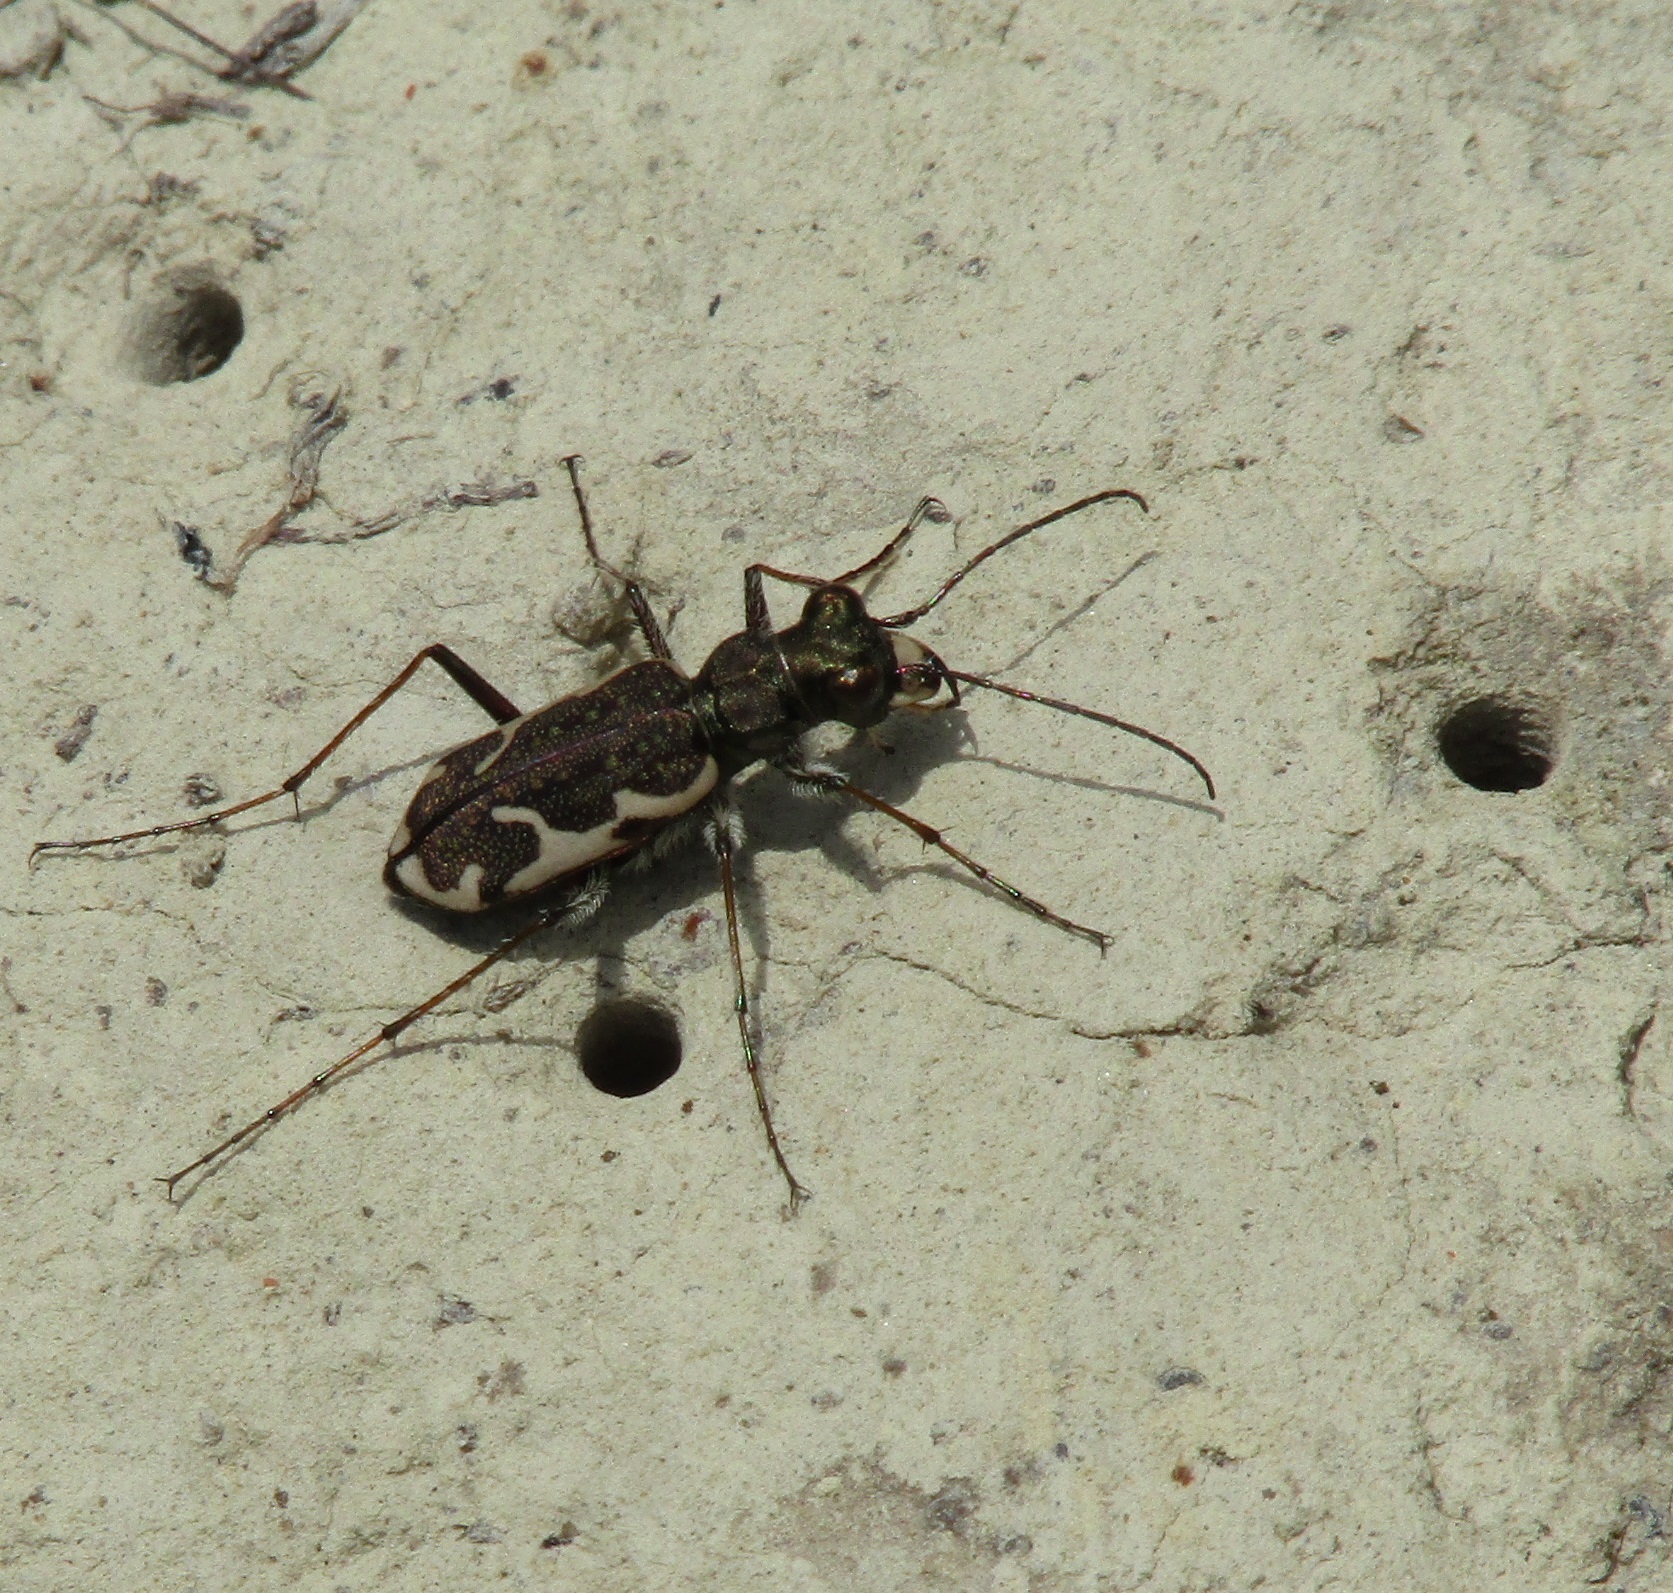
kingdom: Animalia
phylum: Arthropoda
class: Insecta
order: Coleoptera
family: Carabidae
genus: Neocicindela
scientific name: Neocicindela tuberculata
